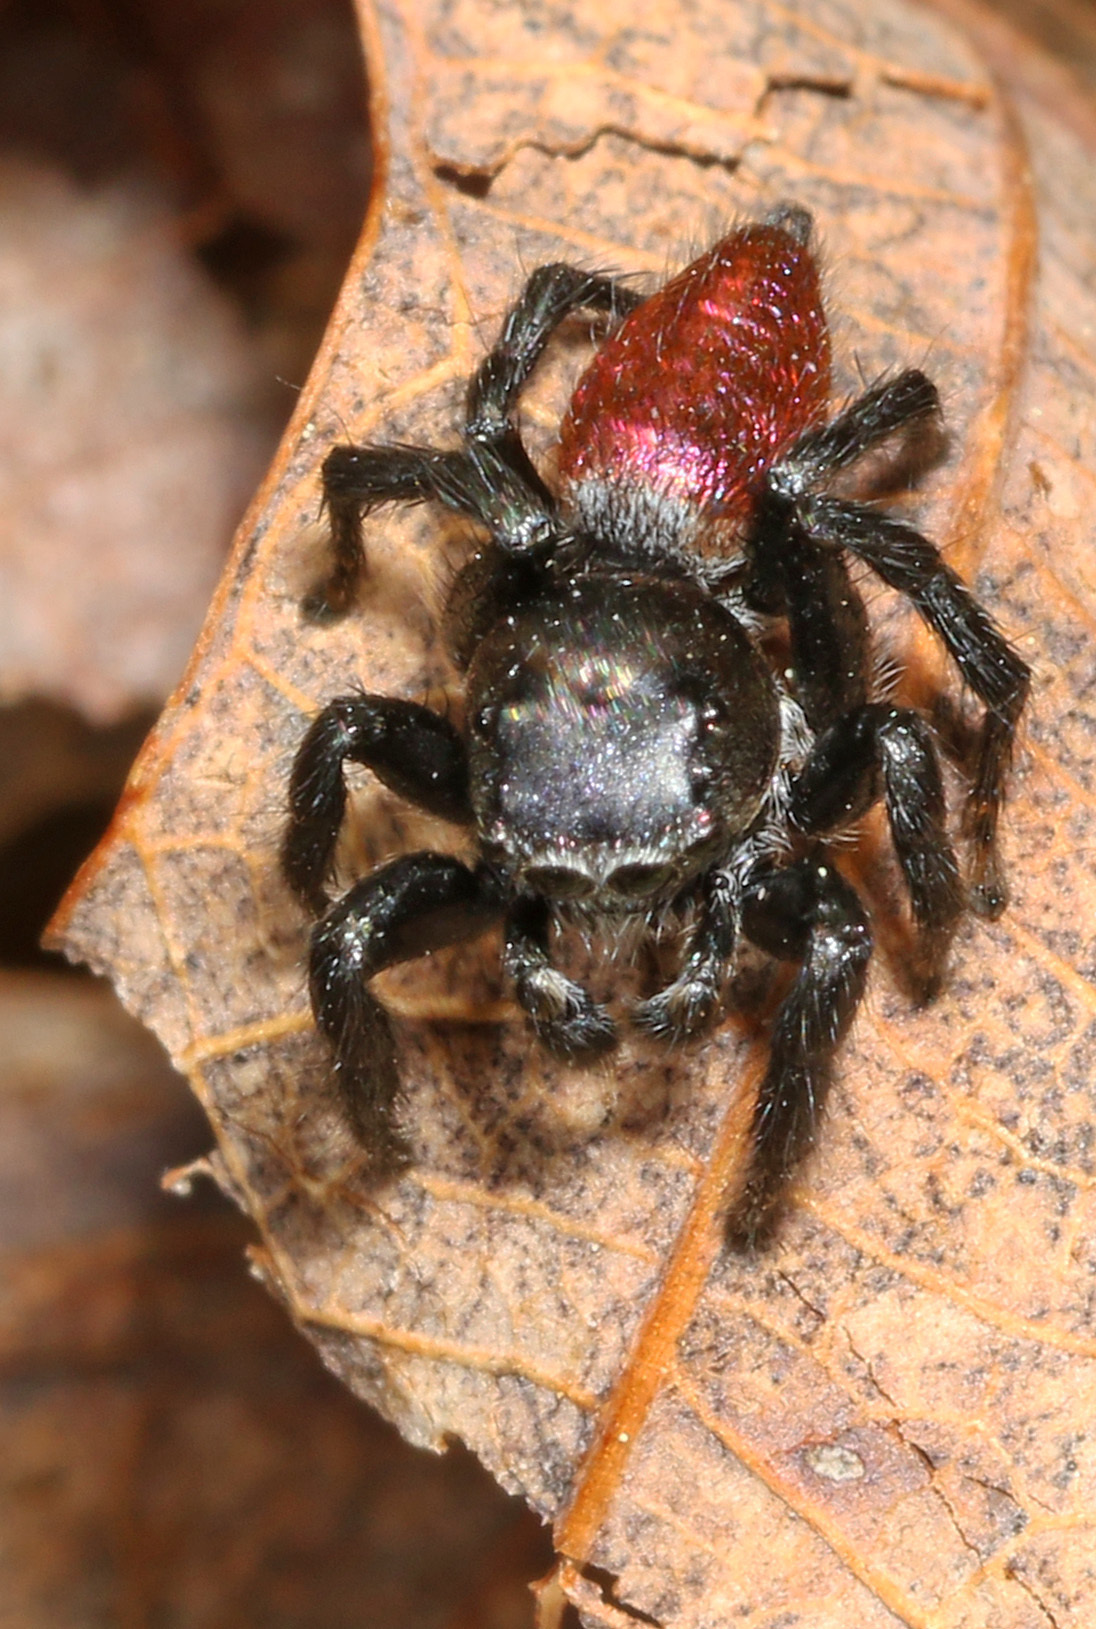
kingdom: Animalia
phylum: Arthropoda
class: Arachnida
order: Araneae
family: Salticidae
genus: Habronattus
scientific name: Habronattus decorus
